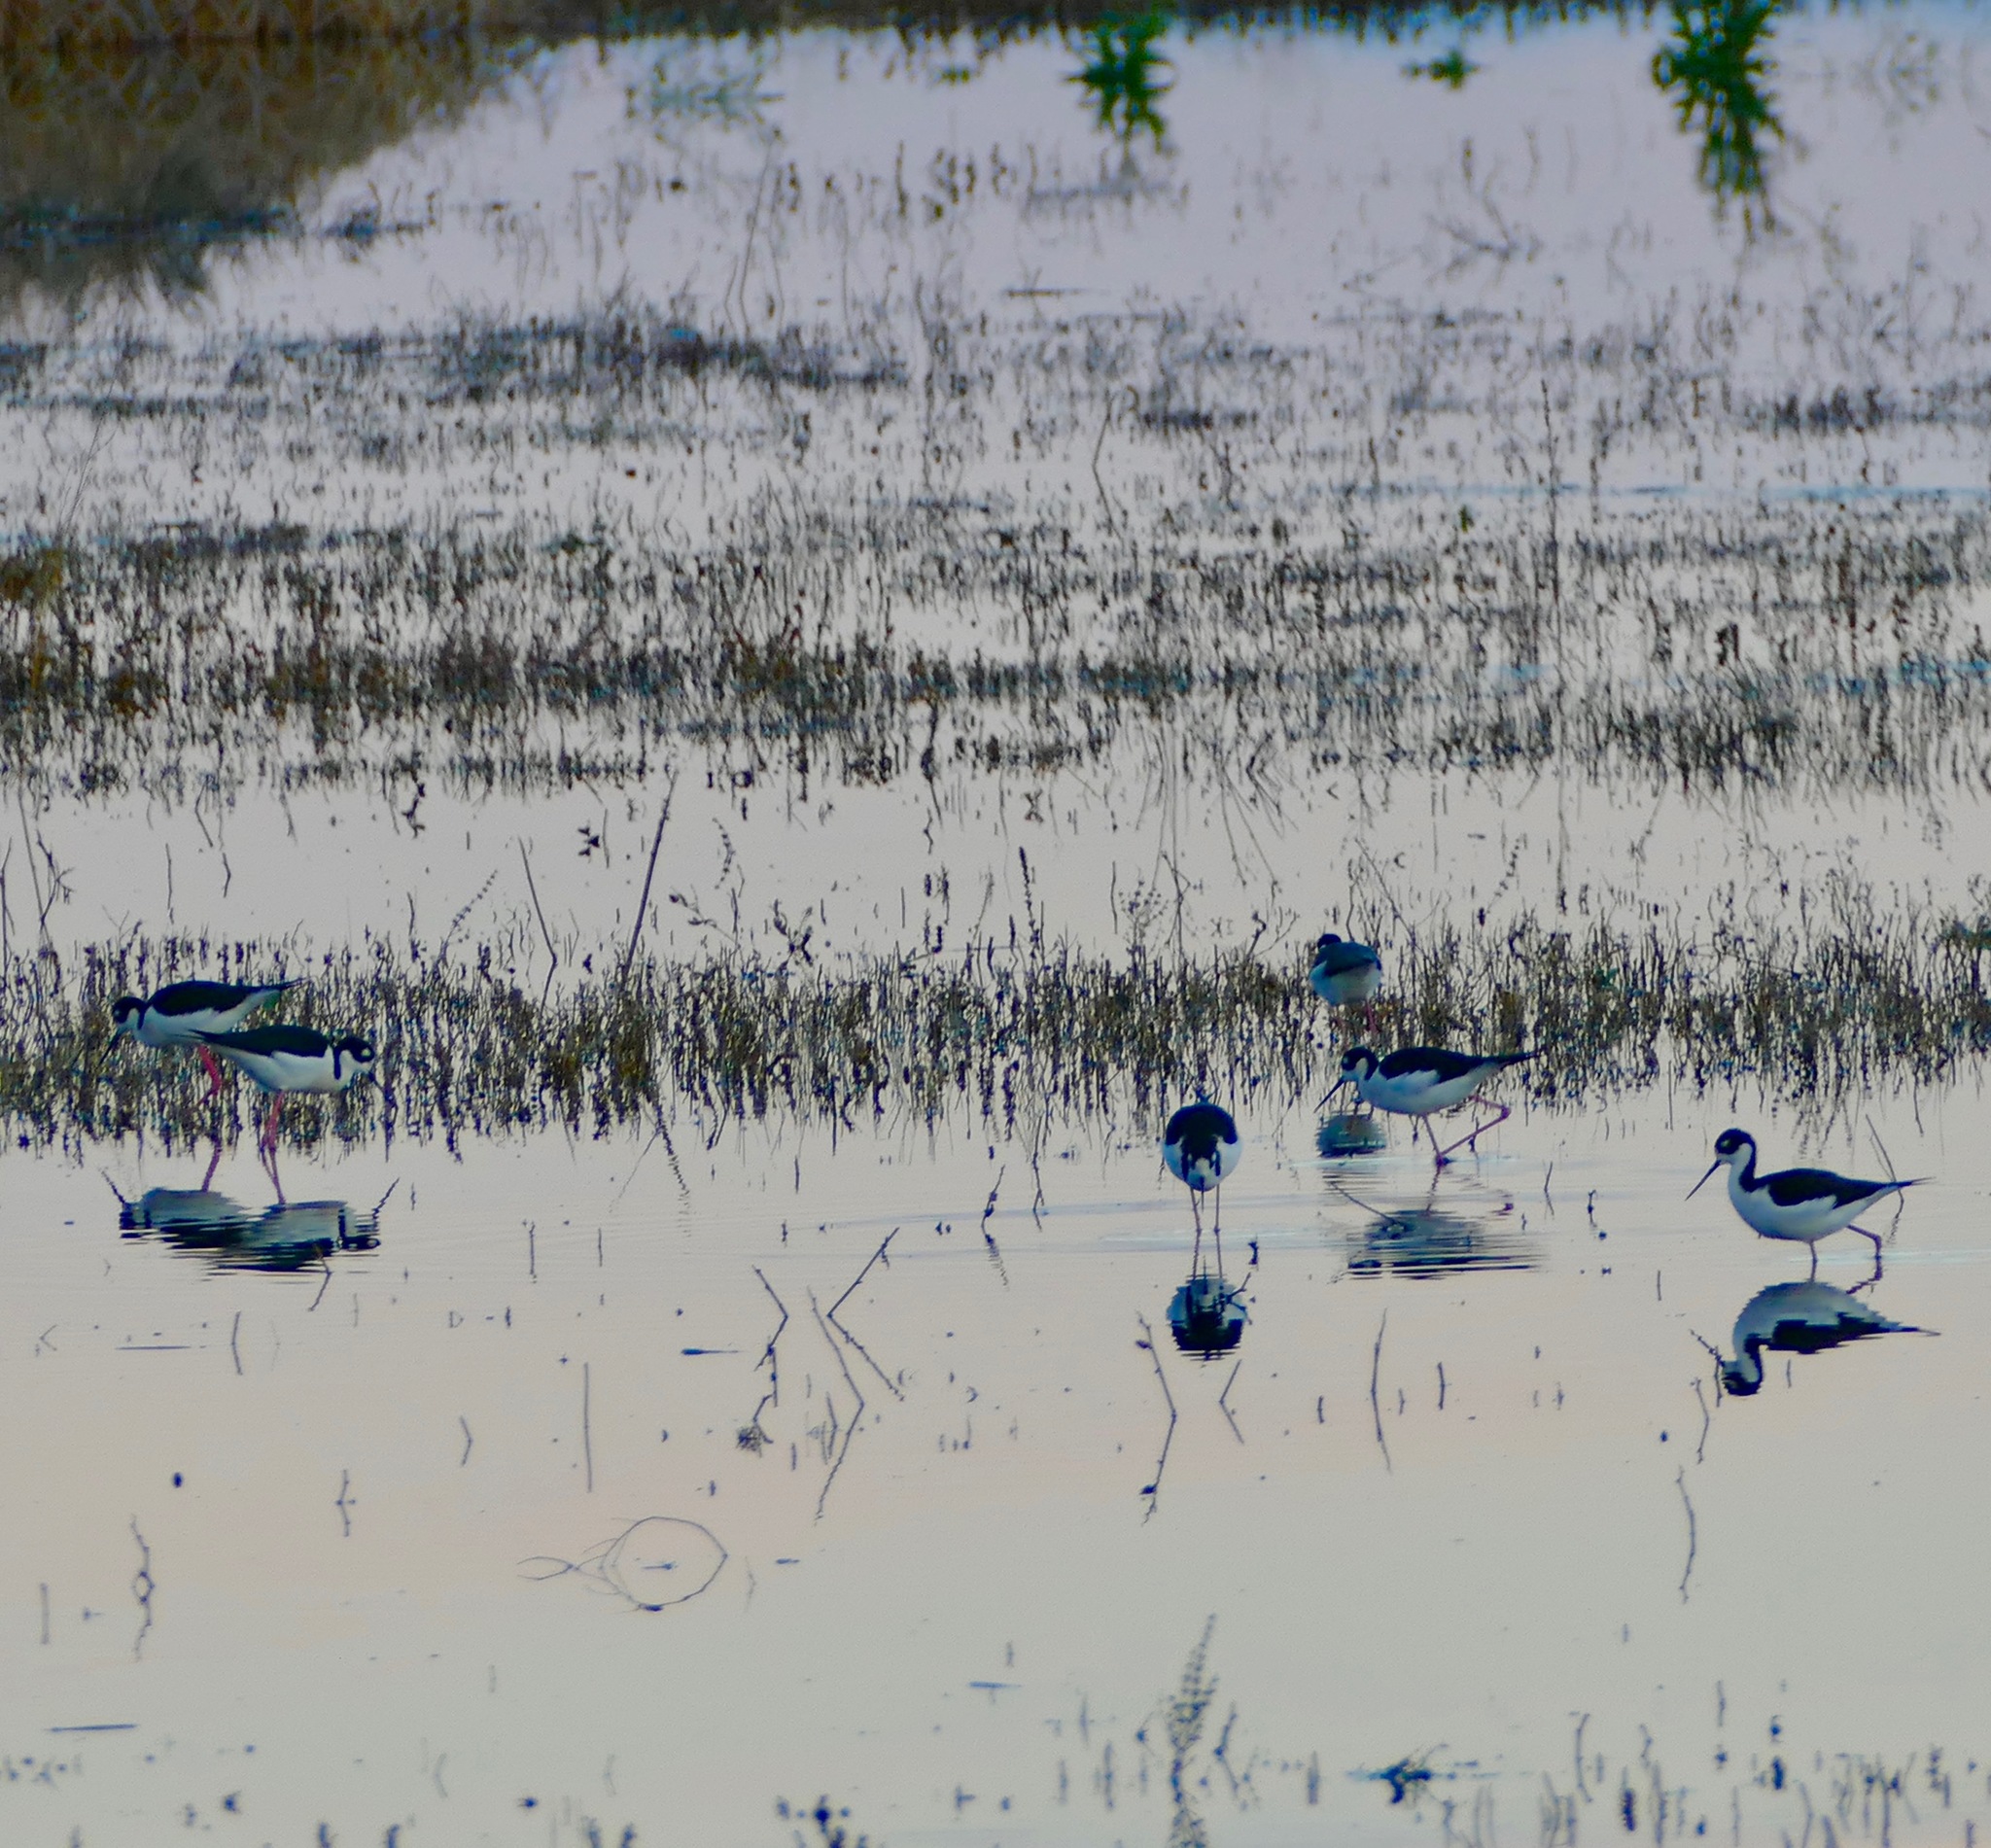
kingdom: Animalia
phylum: Chordata
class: Aves
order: Charadriiformes
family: Recurvirostridae
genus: Himantopus
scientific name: Himantopus mexicanus
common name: Black-necked stilt
